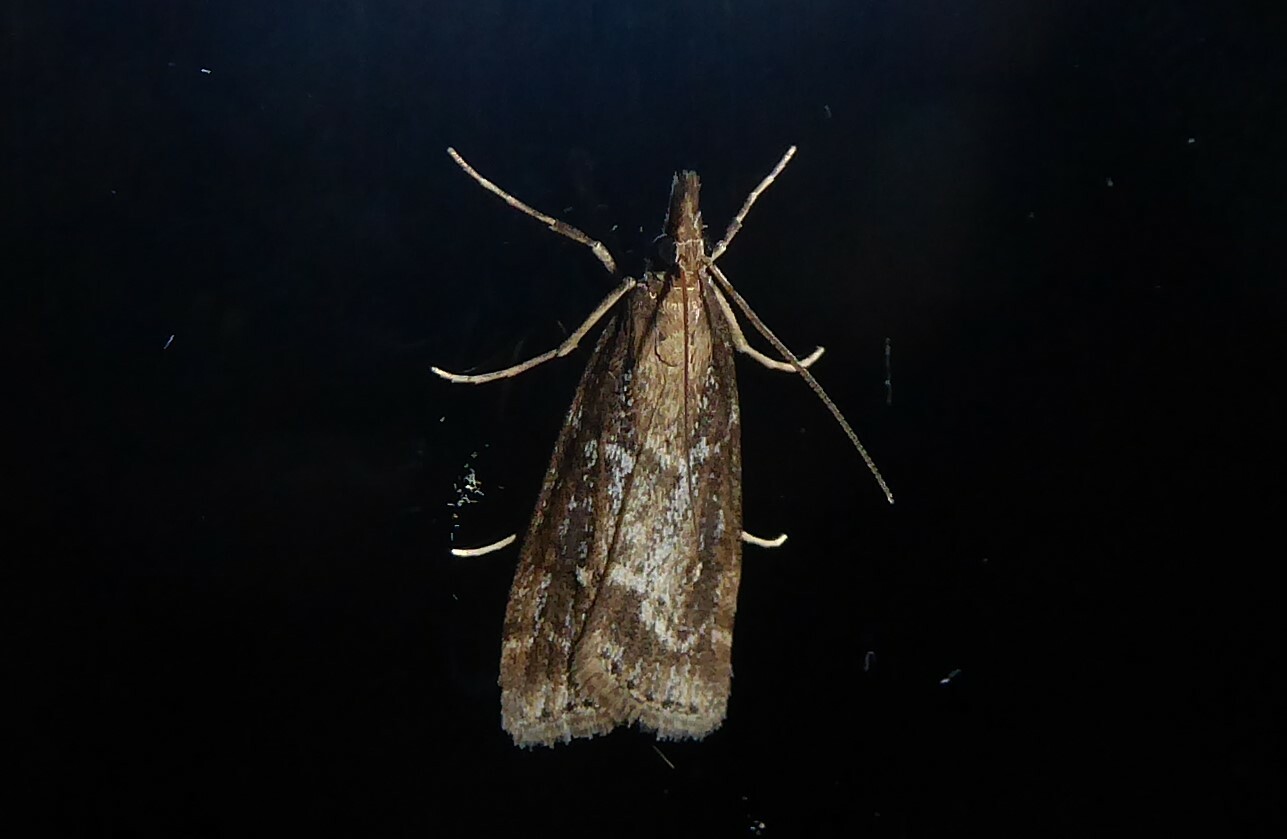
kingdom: Animalia
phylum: Arthropoda
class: Insecta
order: Lepidoptera
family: Crambidae
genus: Eudonia
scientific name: Eudonia octophora
